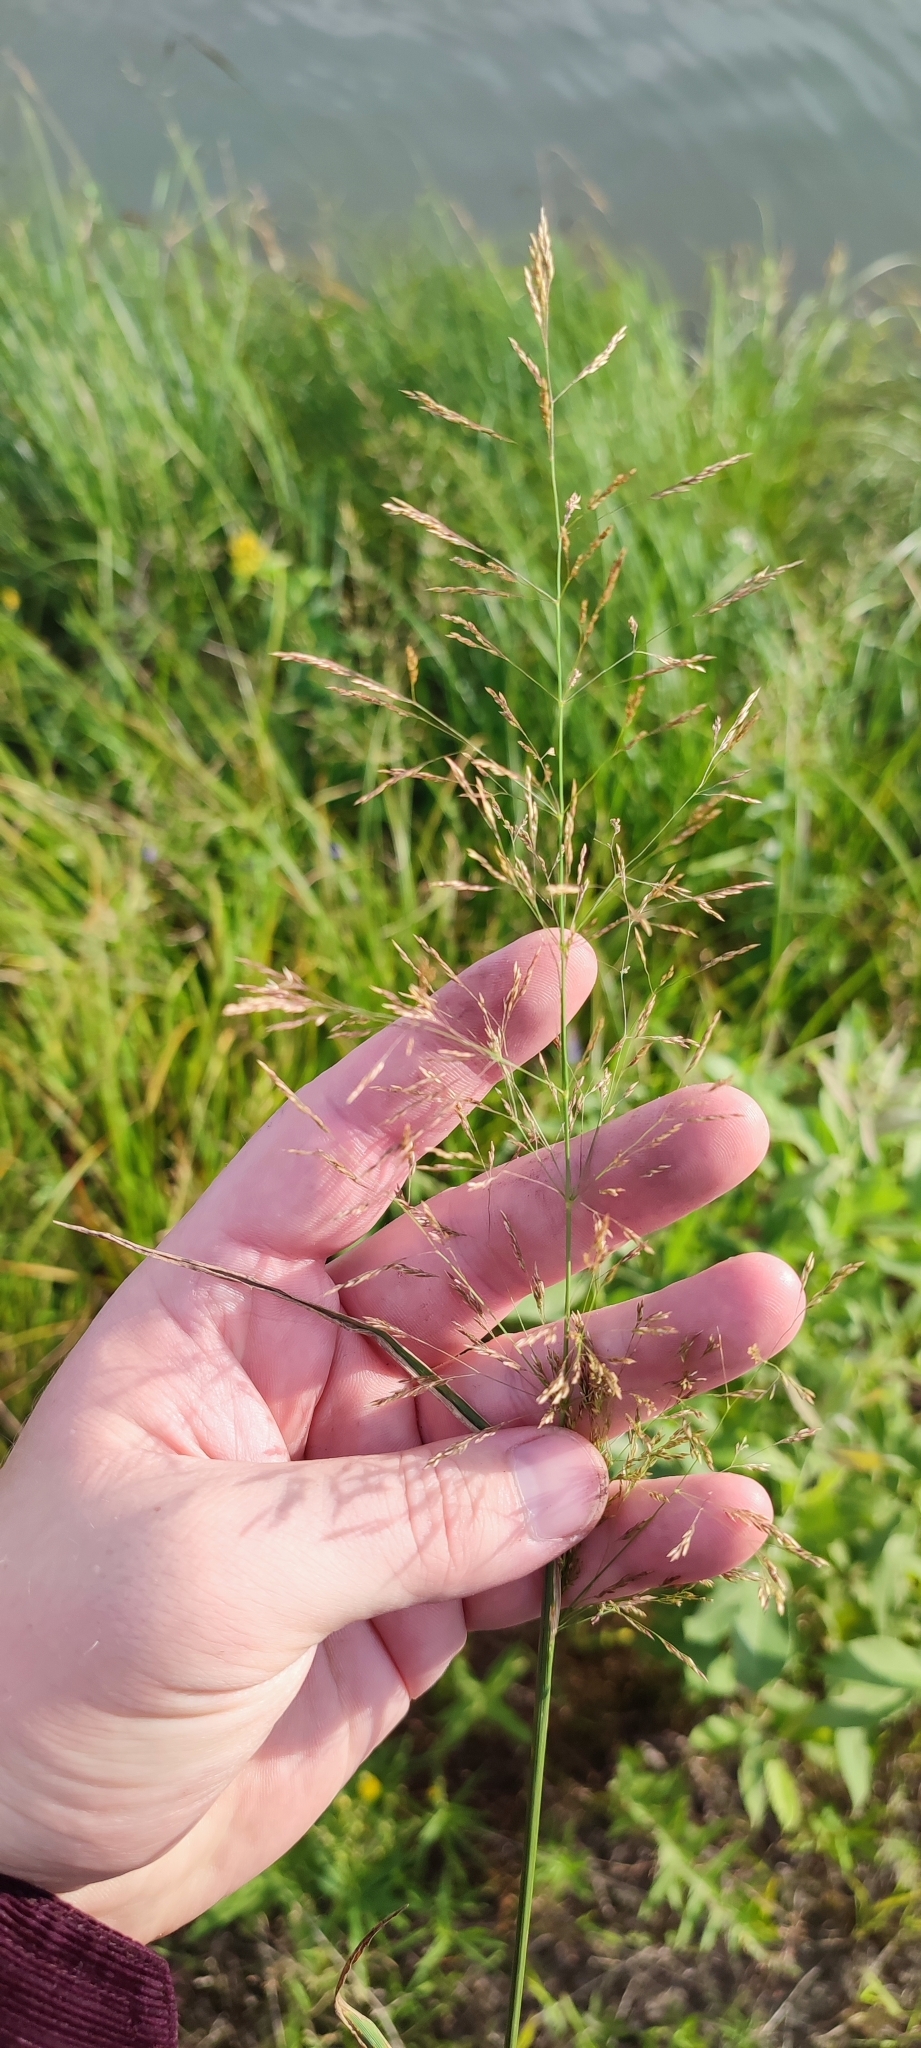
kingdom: Plantae
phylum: Tracheophyta
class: Liliopsida
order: Poales
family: Poaceae
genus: Agrostis
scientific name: Agrostis gigantea
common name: Black bent
